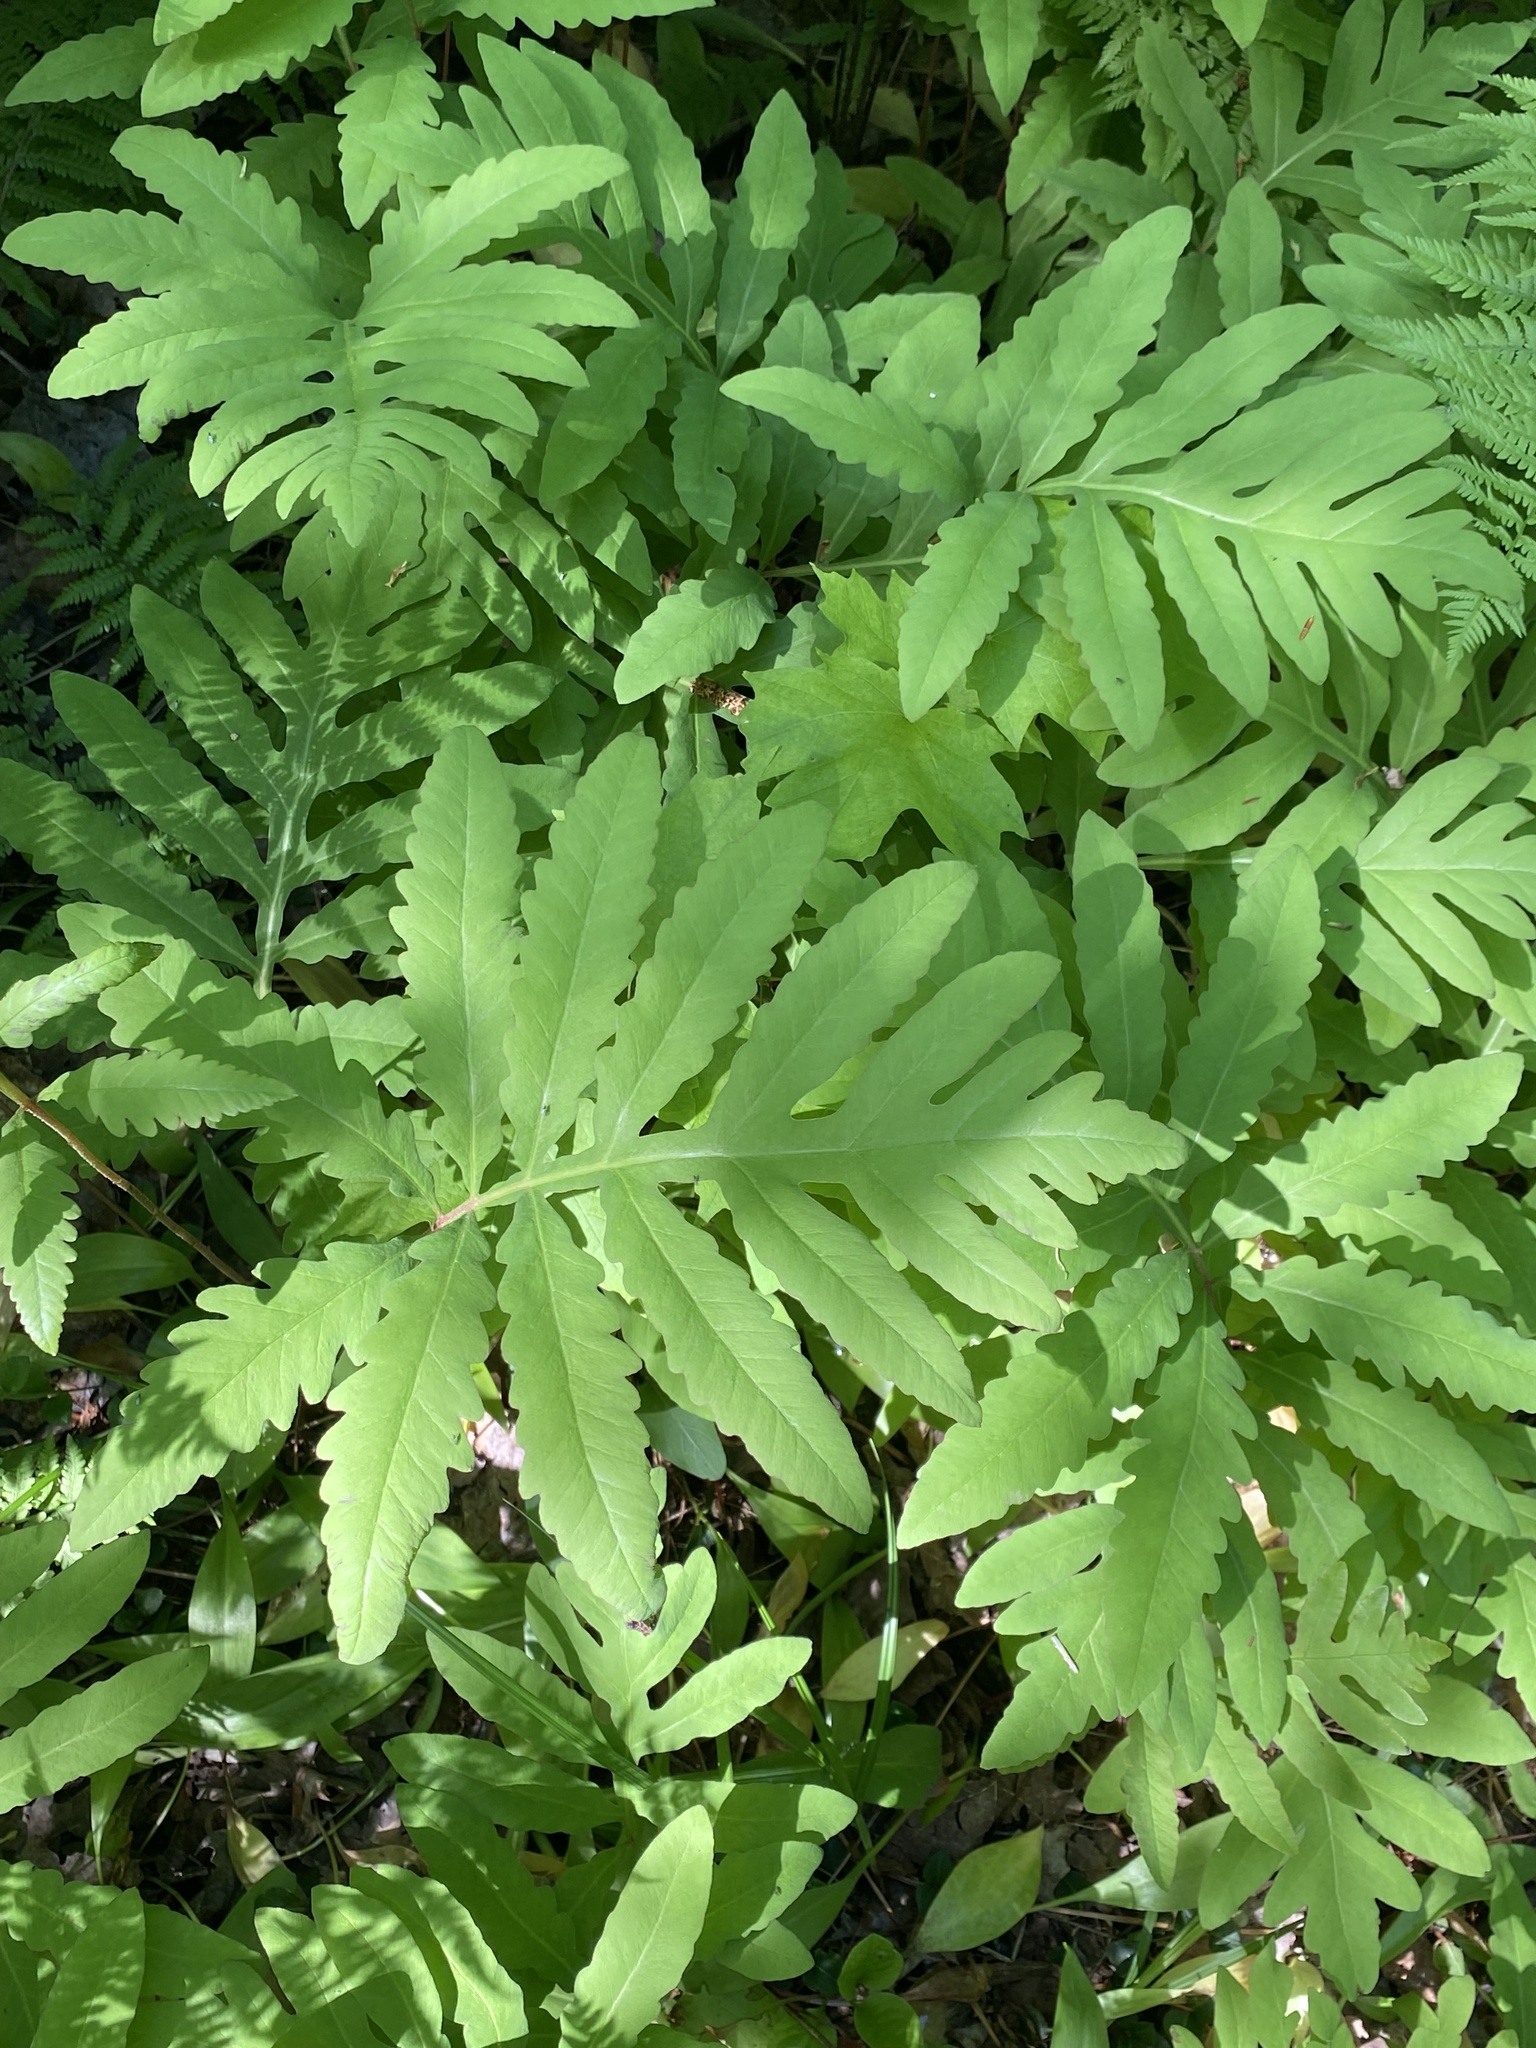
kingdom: Plantae
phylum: Tracheophyta
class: Polypodiopsida
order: Polypodiales
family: Onocleaceae
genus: Onoclea
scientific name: Onoclea sensibilis
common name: Sensitive fern
